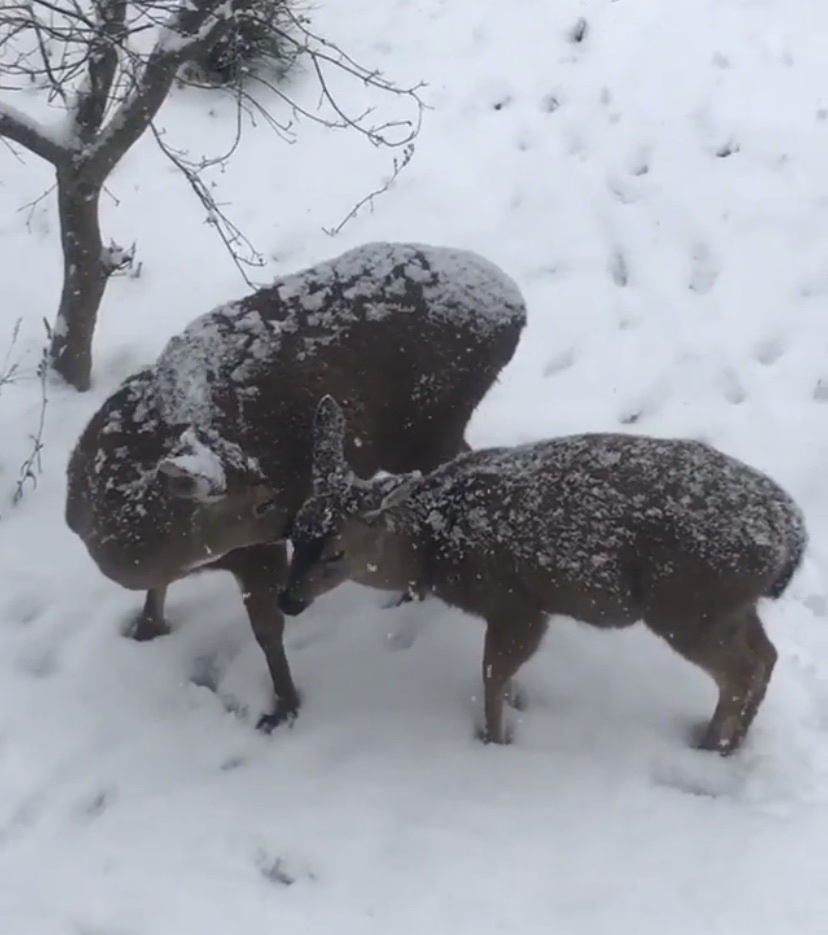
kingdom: Animalia
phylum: Chordata
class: Mammalia
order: Artiodactyla
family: Cervidae
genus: Odocoileus
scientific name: Odocoileus hemionus
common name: Mule deer
